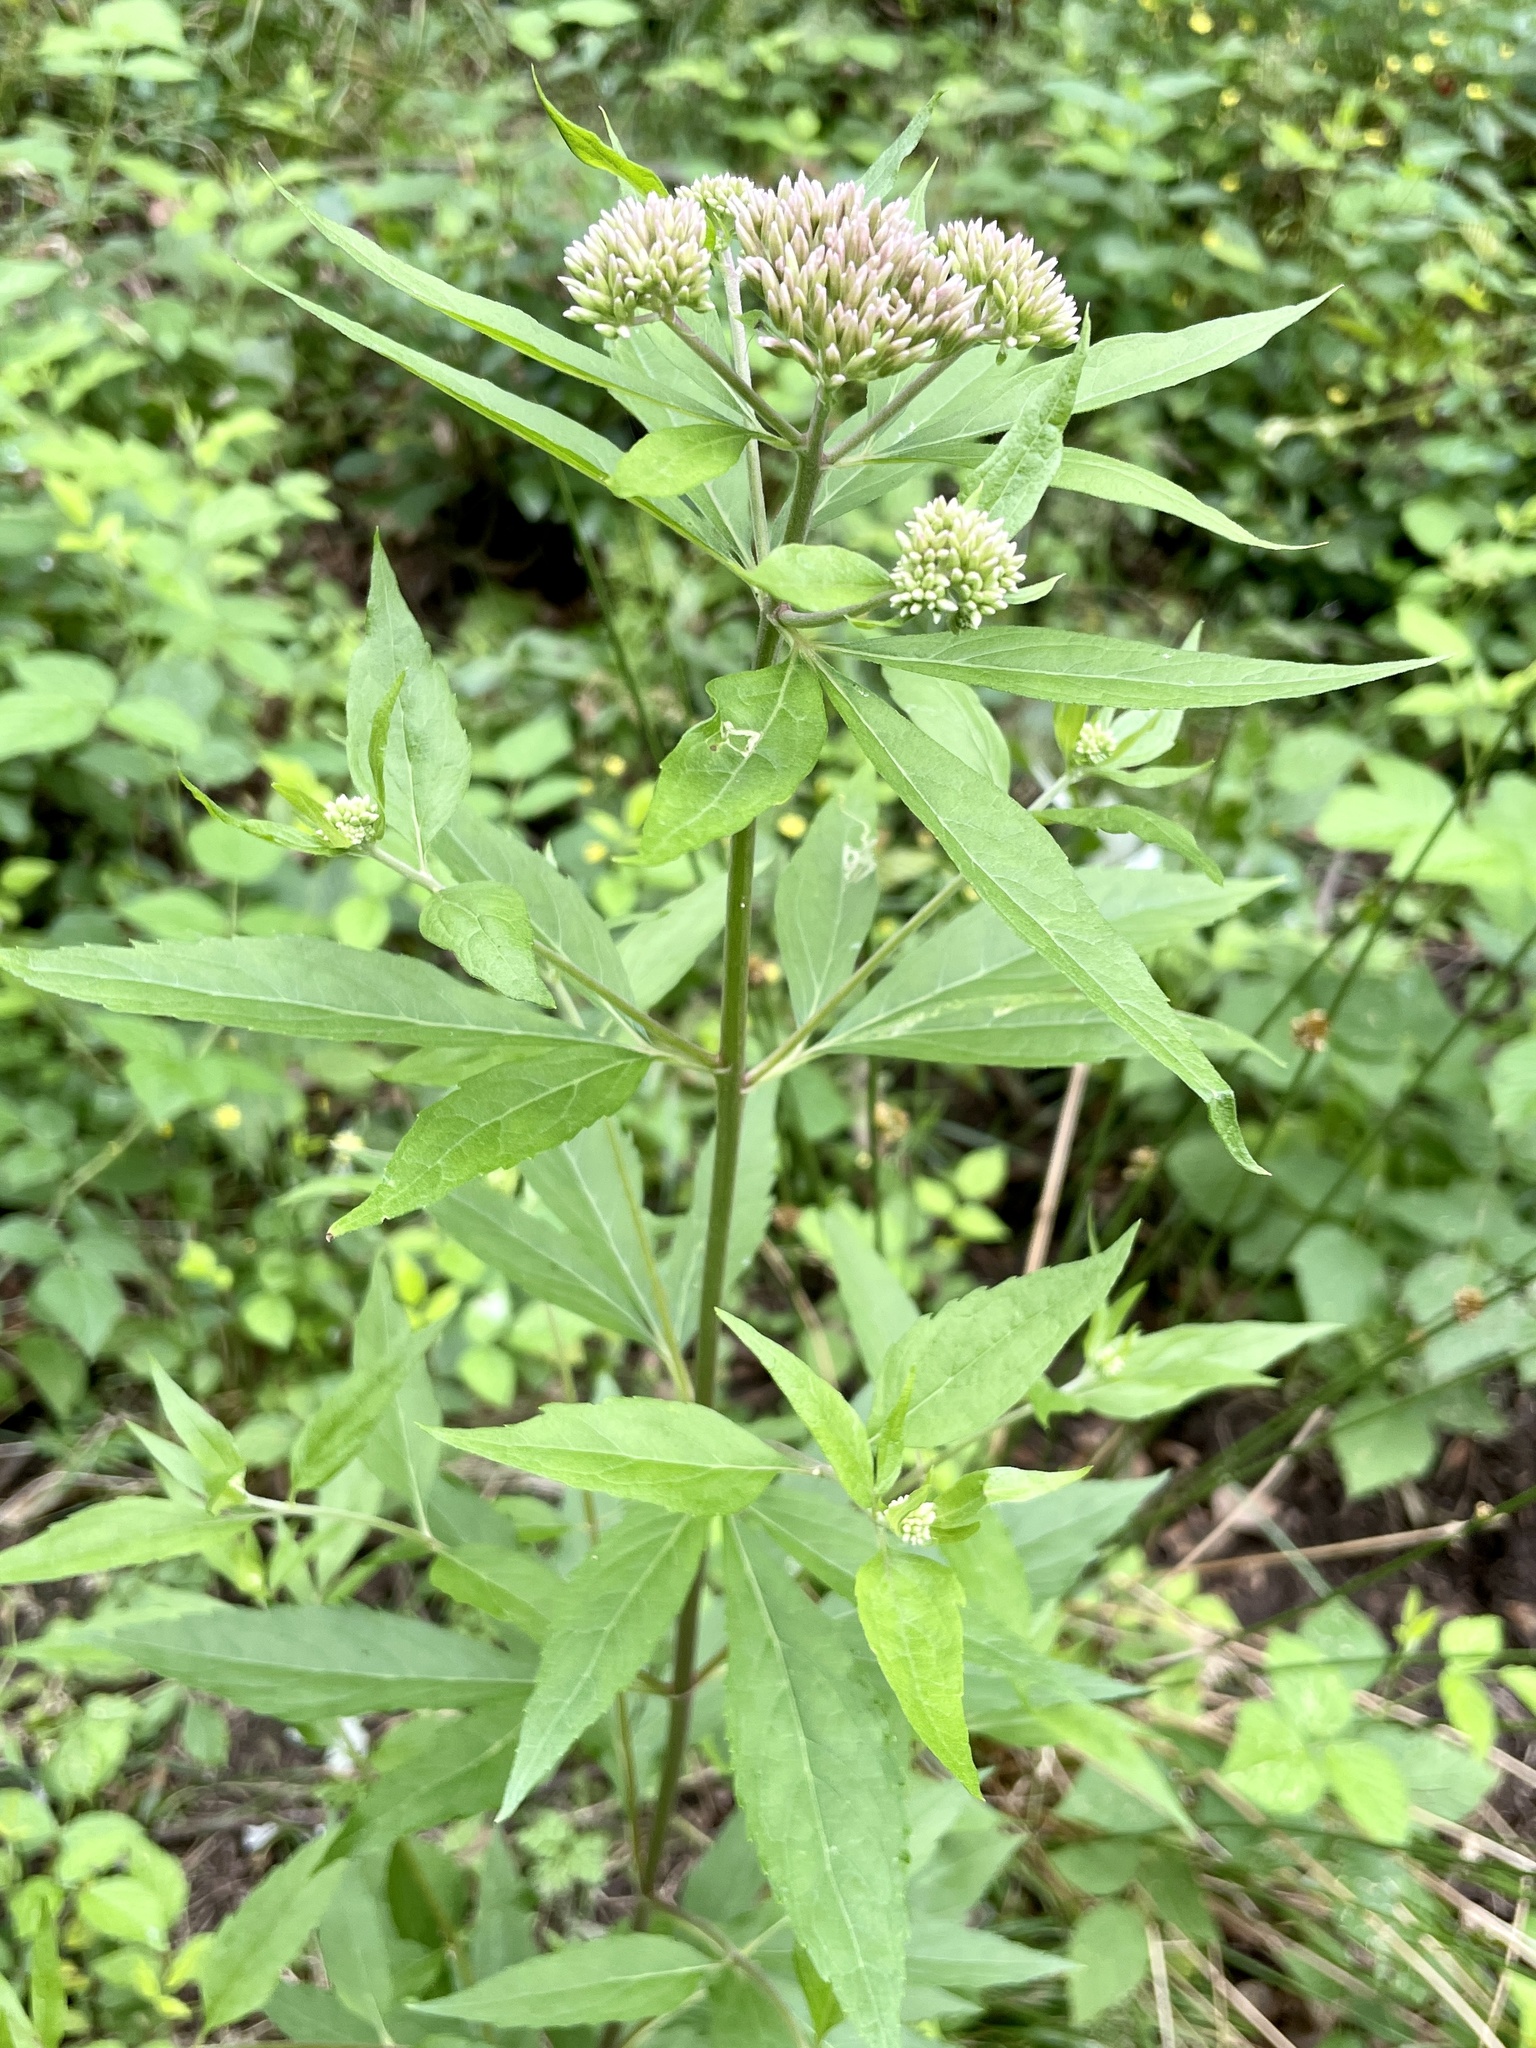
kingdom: Plantae
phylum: Tracheophyta
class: Magnoliopsida
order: Asterales
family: Asteraceae
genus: Eupatorium
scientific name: Eupatorium cannabinum
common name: Hemp-agrimony
